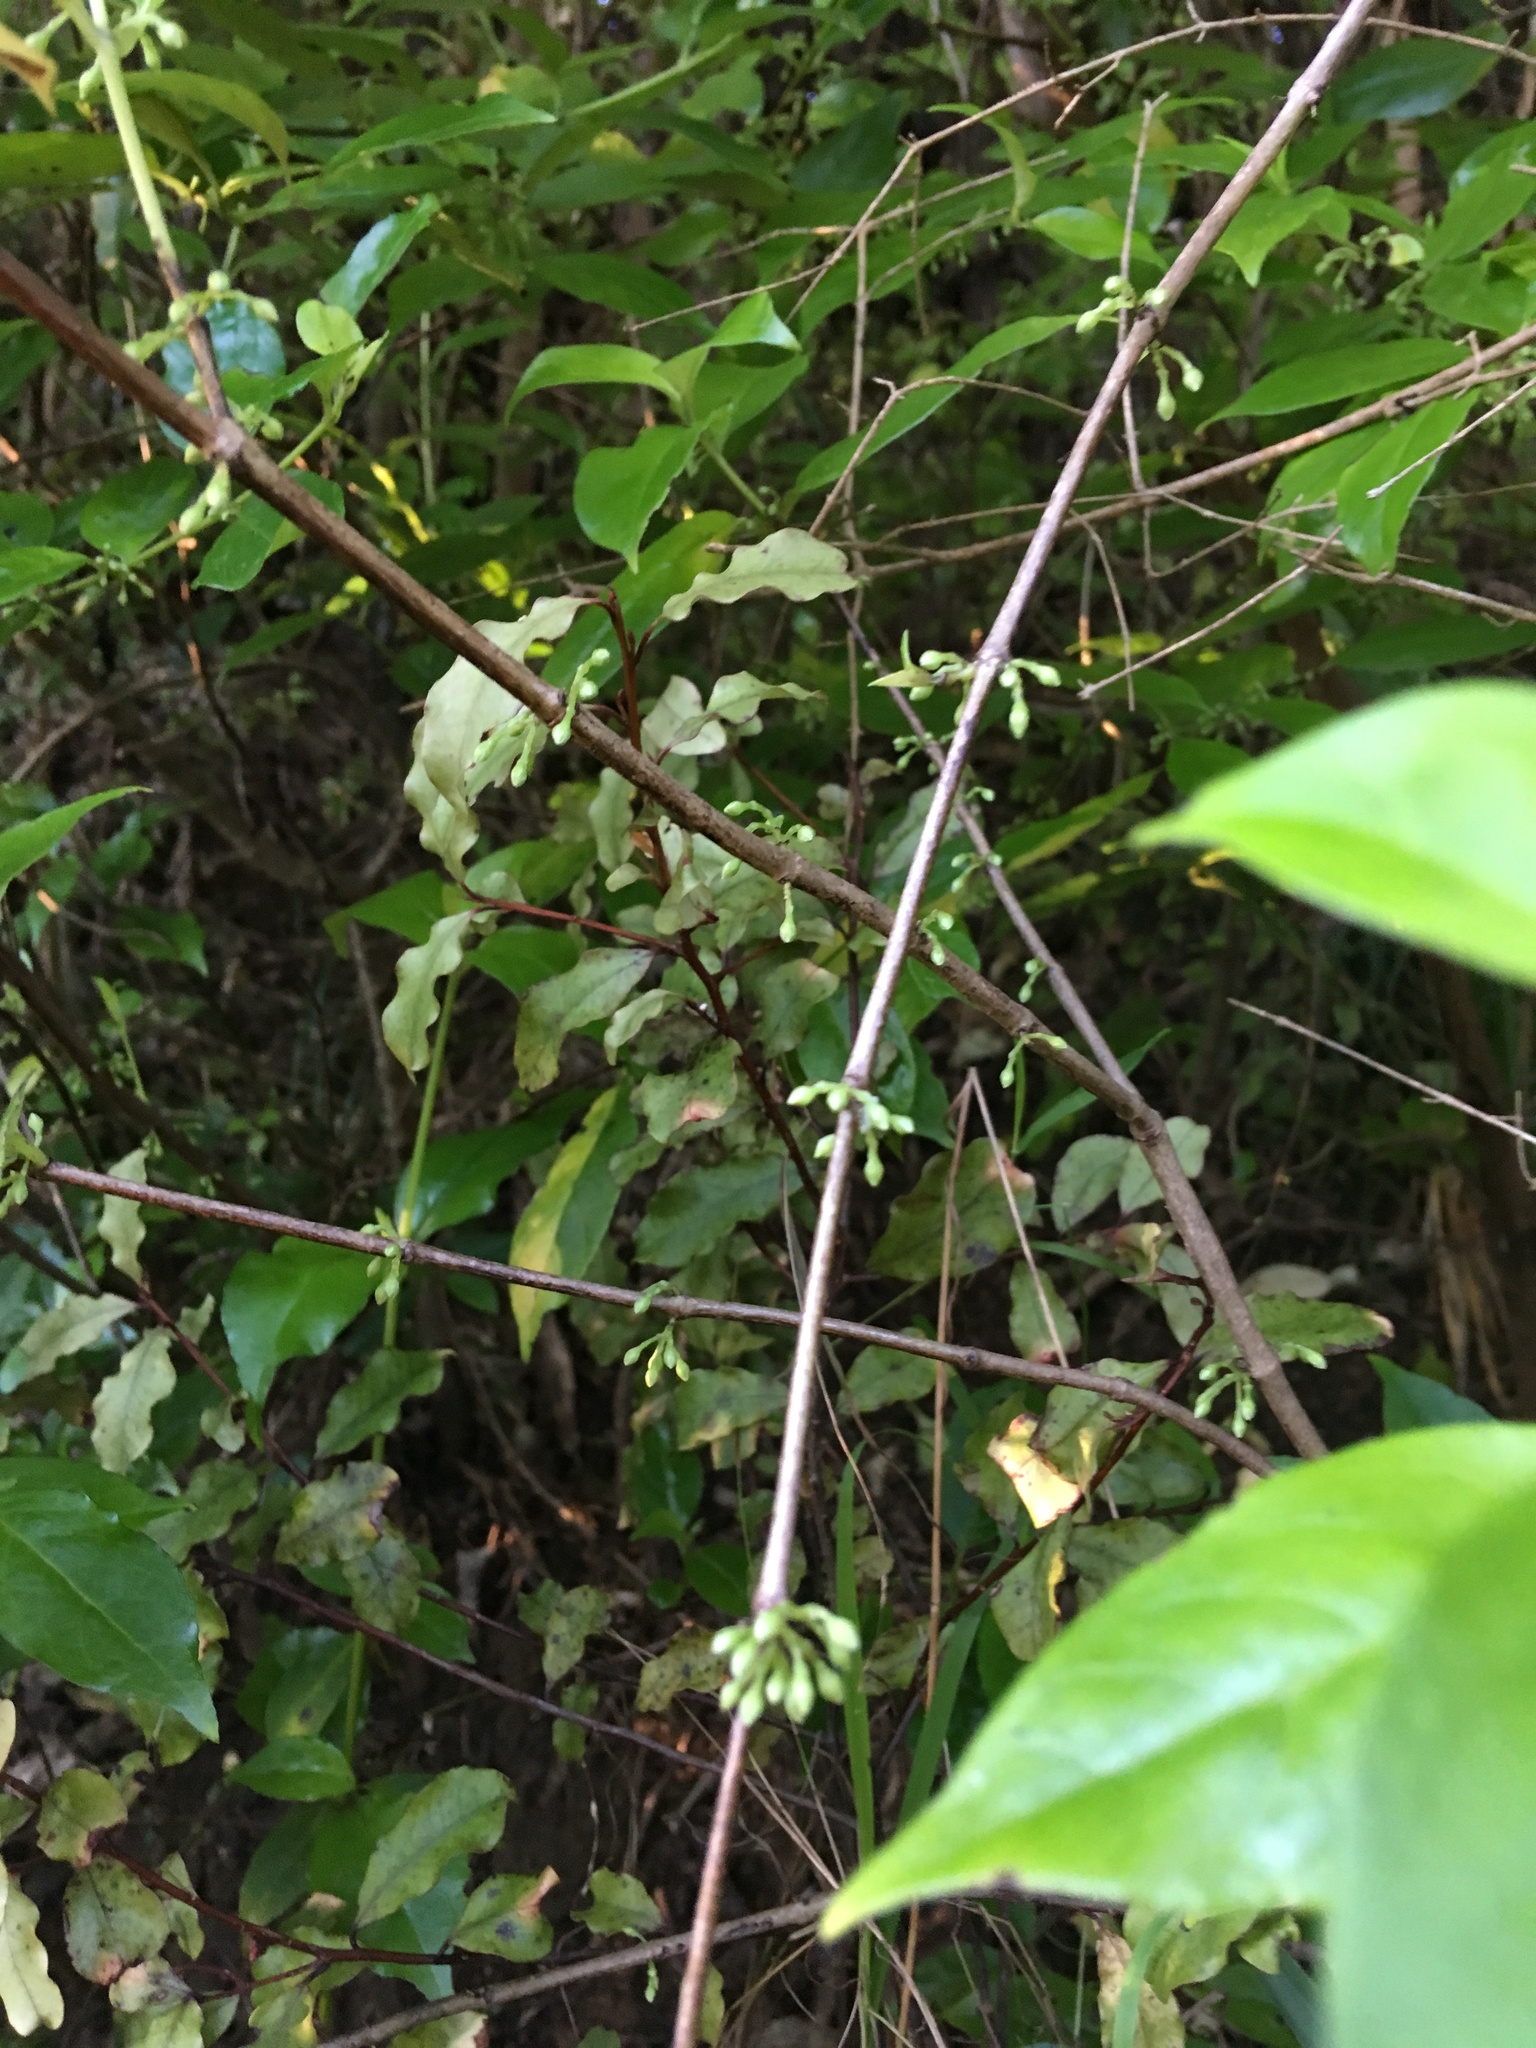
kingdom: Plantae
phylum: Tracheophyta
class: Magnoliopsida
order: Gentianales
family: Loganiaceae
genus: Geniostoma
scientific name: Geniostoma ligustrifolium
